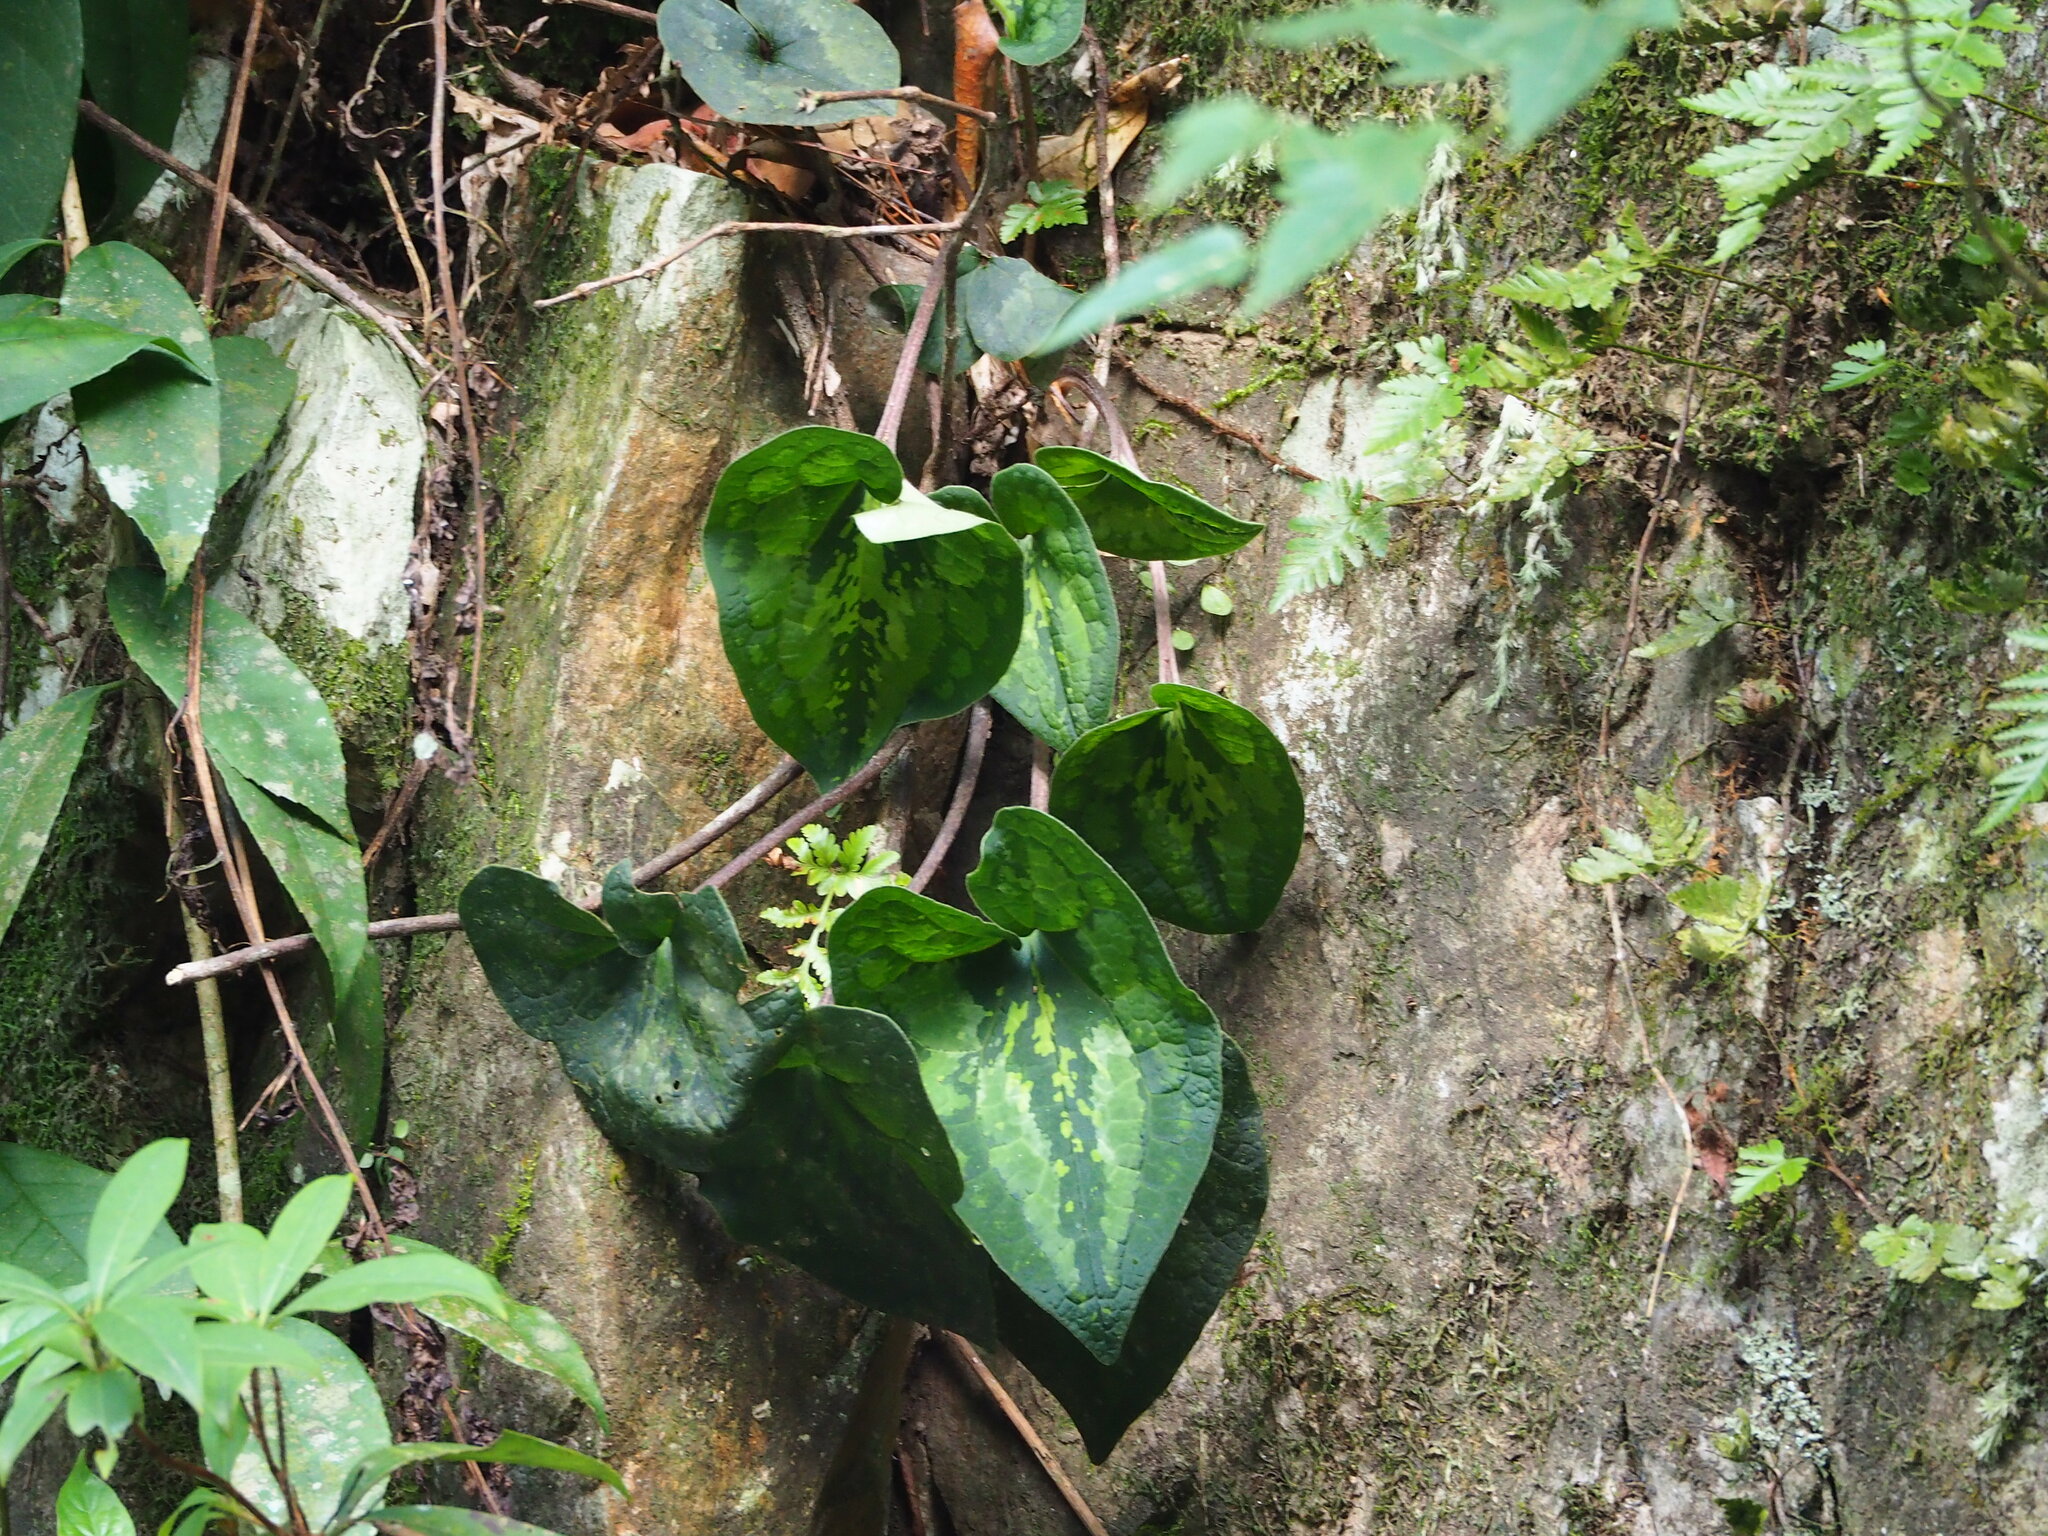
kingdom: Plantae
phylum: Tracheophyta
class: Magnoliopsida
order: Piperales
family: Aristolochiaceae
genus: Asarum
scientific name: Asarum macranthum
